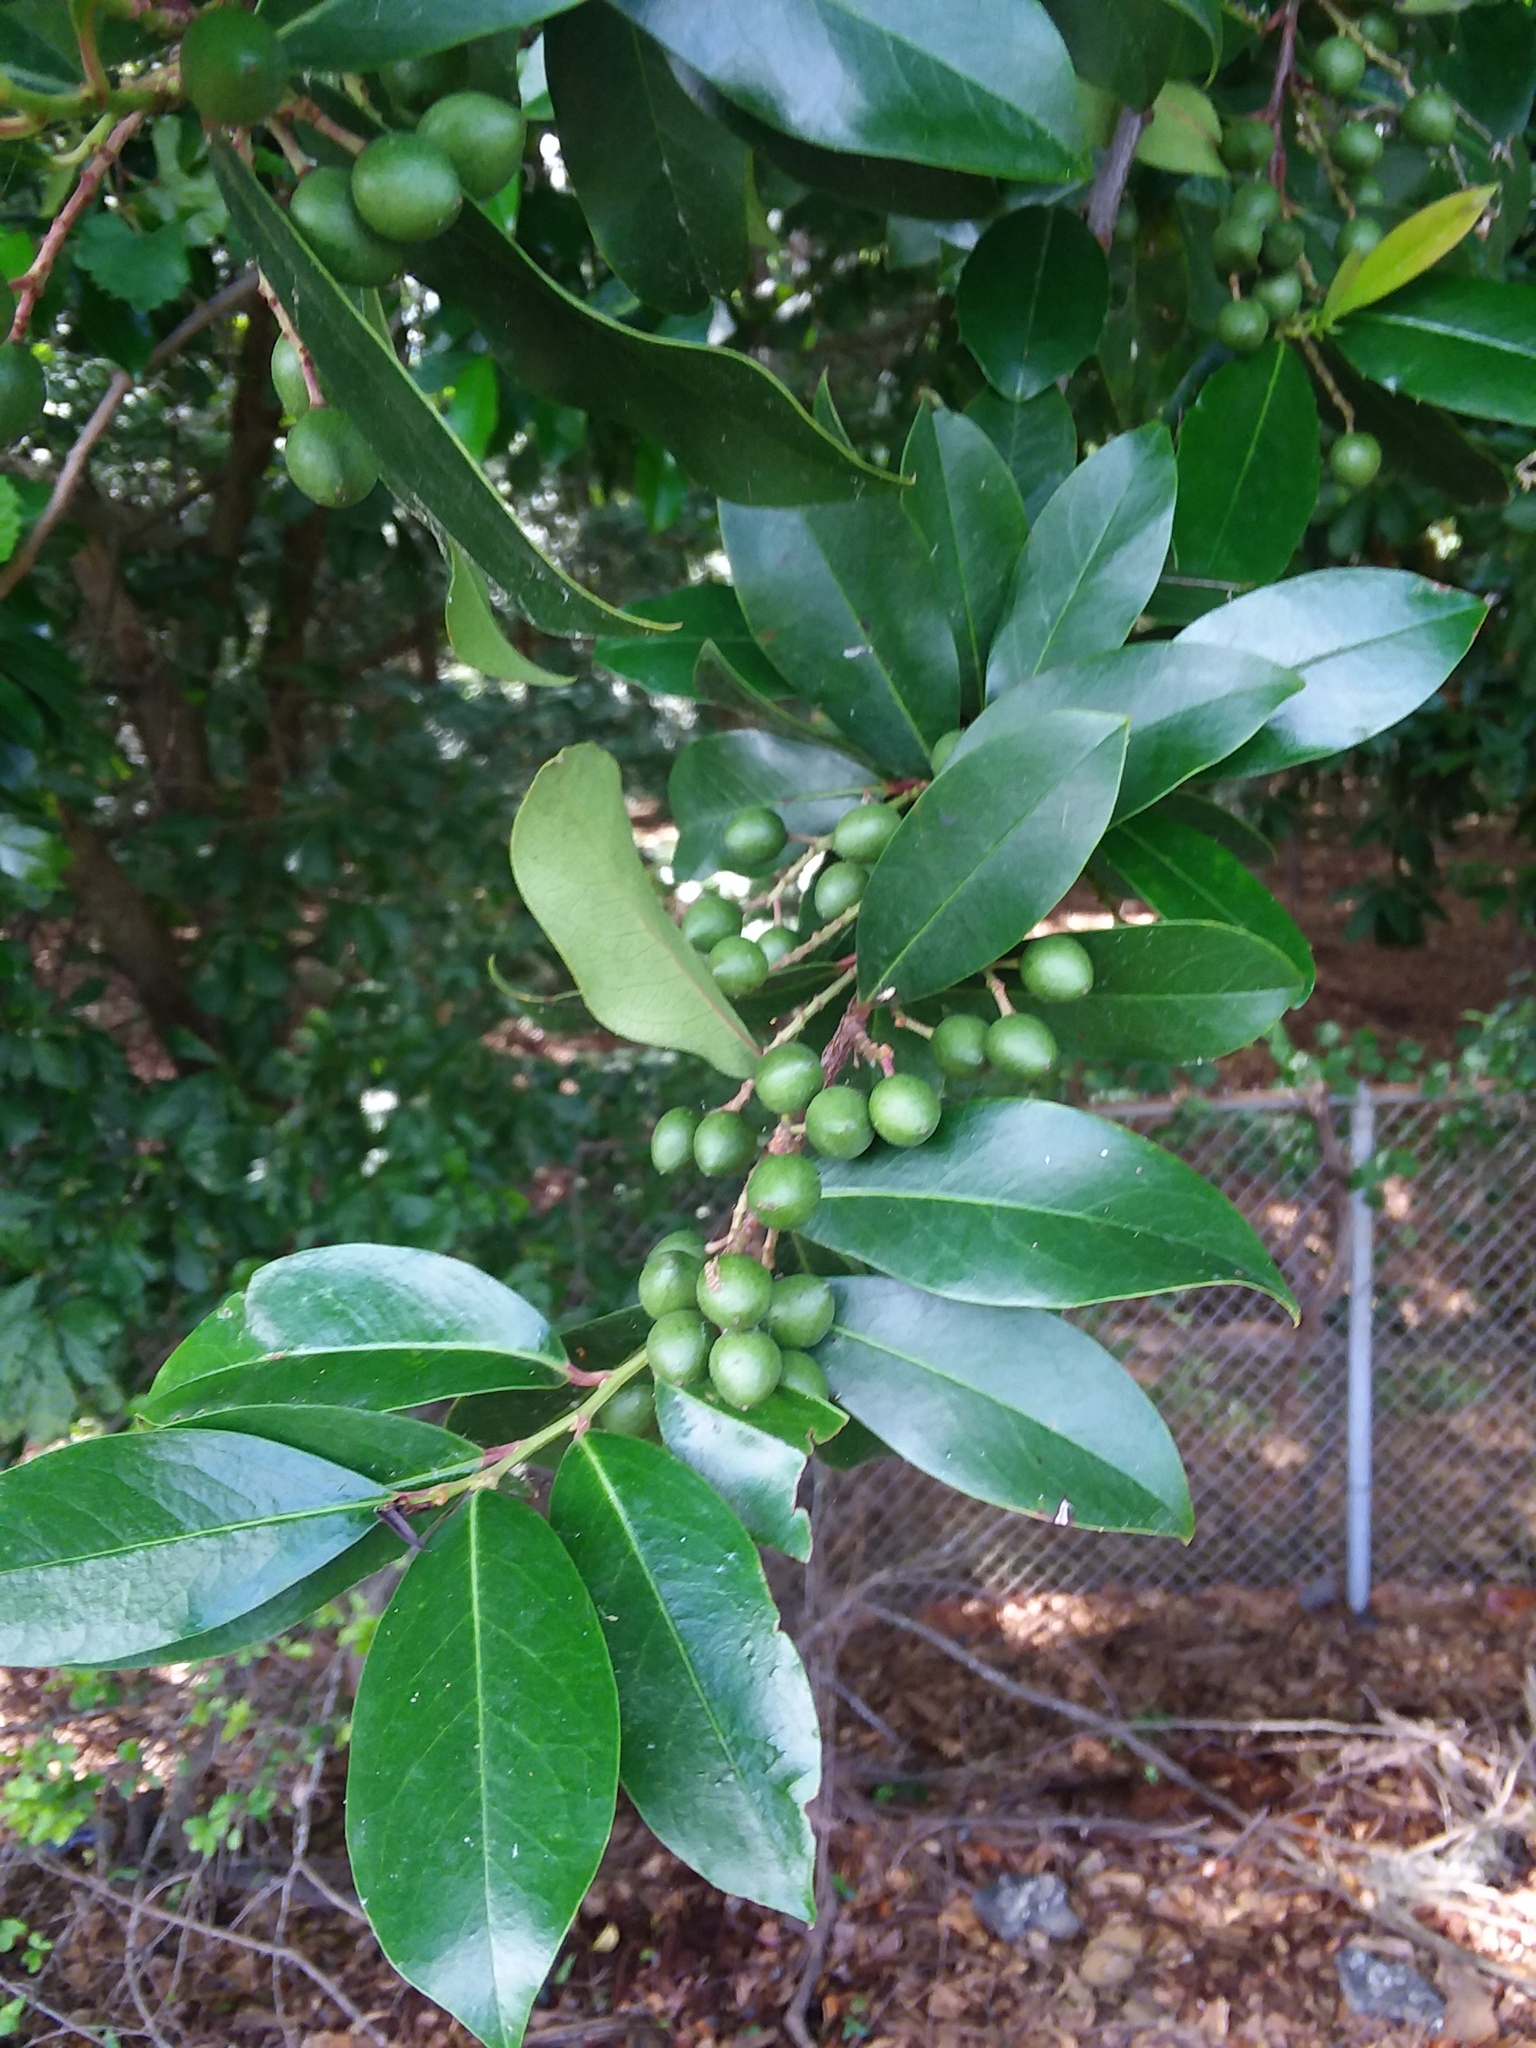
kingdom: Plantae
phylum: Tracheophyta
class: Magnoliopsida
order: Rosales
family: Rosaceae
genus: Prunus
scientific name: Prunus caroliniana
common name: Carolina laurel cherry
